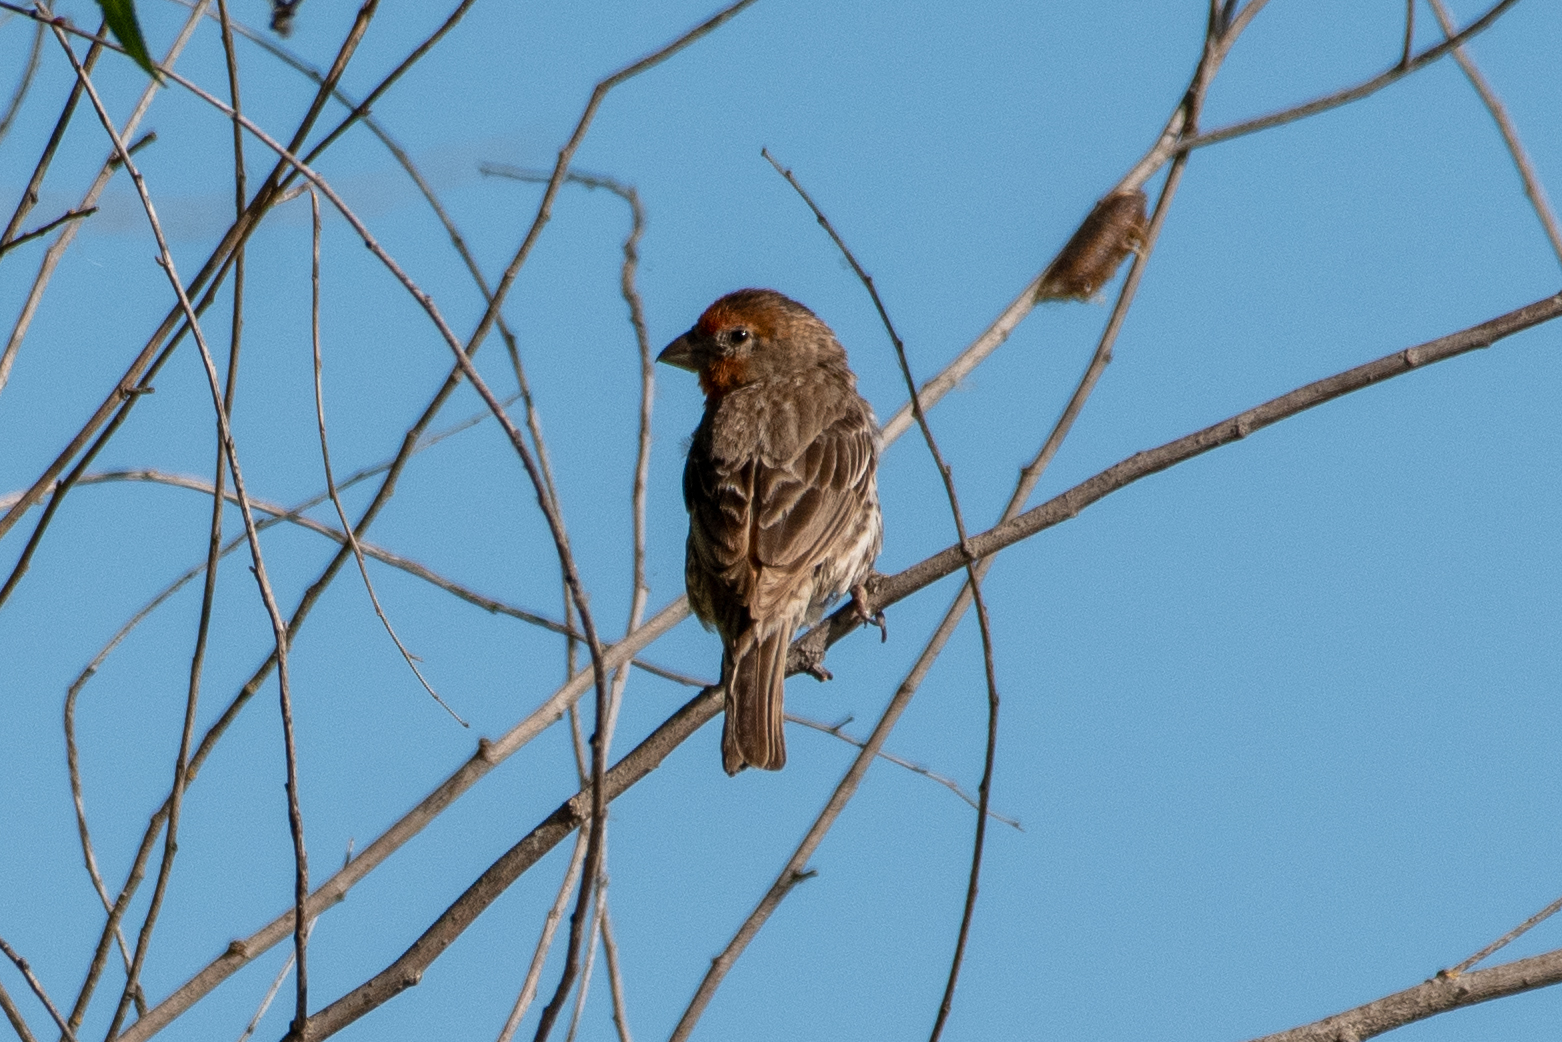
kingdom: Animalia
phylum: Chordata
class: Aves
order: Passeriformes
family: Fringillidae
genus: Haemorhous
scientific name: Haemorhous mexicanus
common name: House finch
